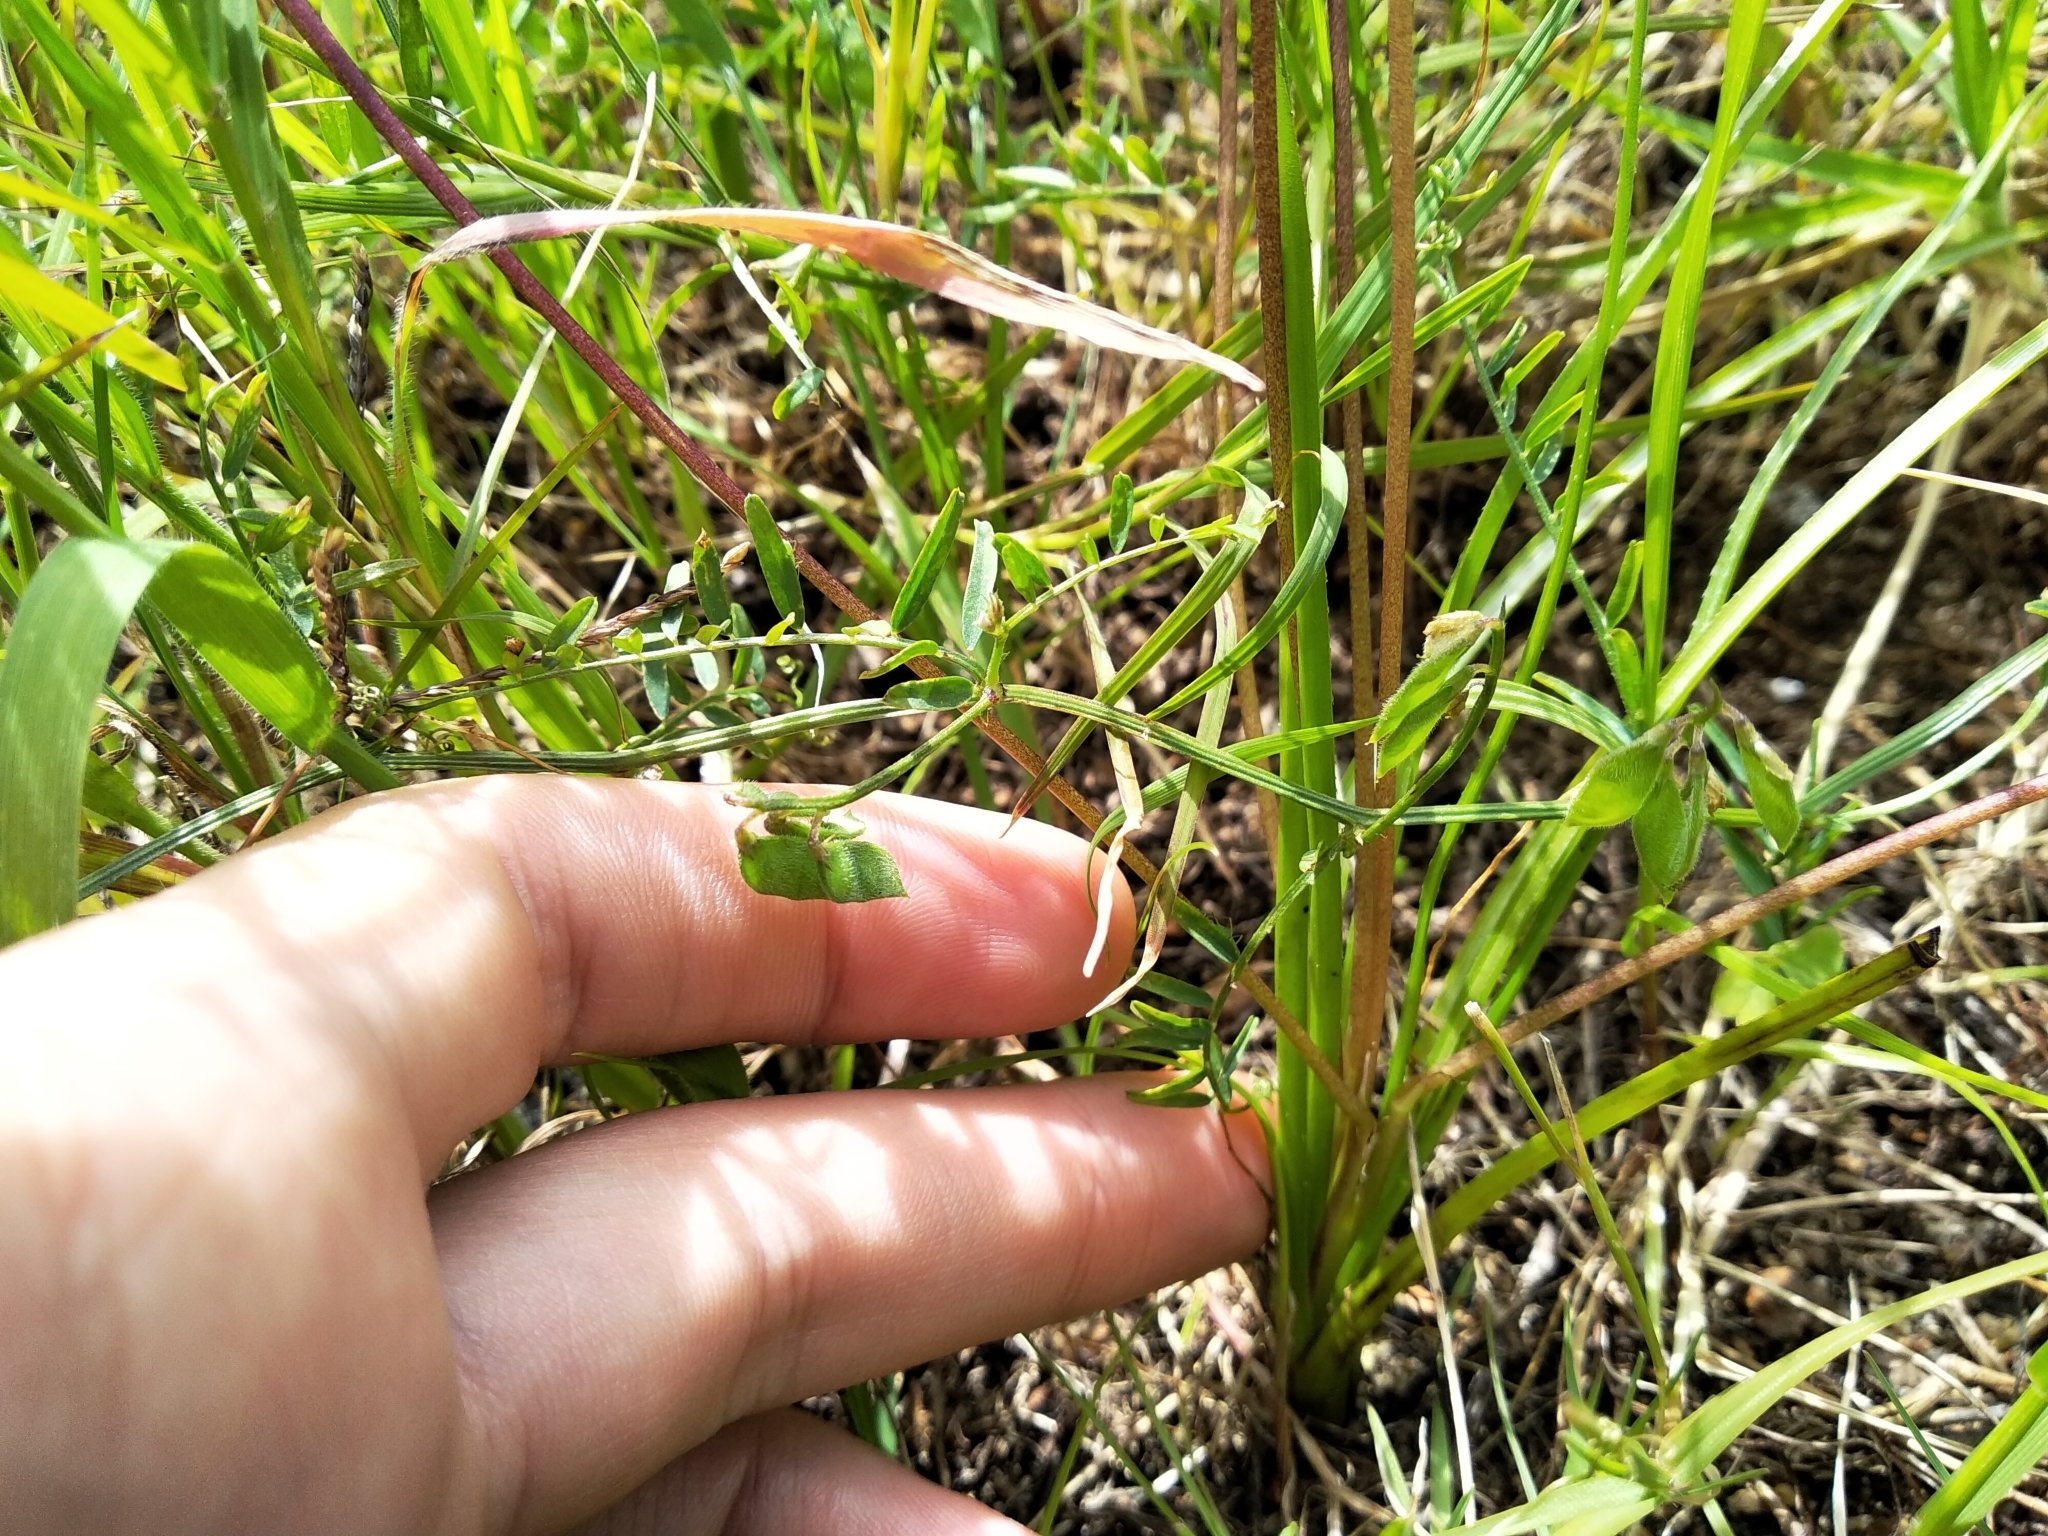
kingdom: Plantae
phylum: Tracheophyta
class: Liliopsida
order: Asparagales
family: Hypoxidaceae
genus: Pauridia
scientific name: Pauridia serrata
